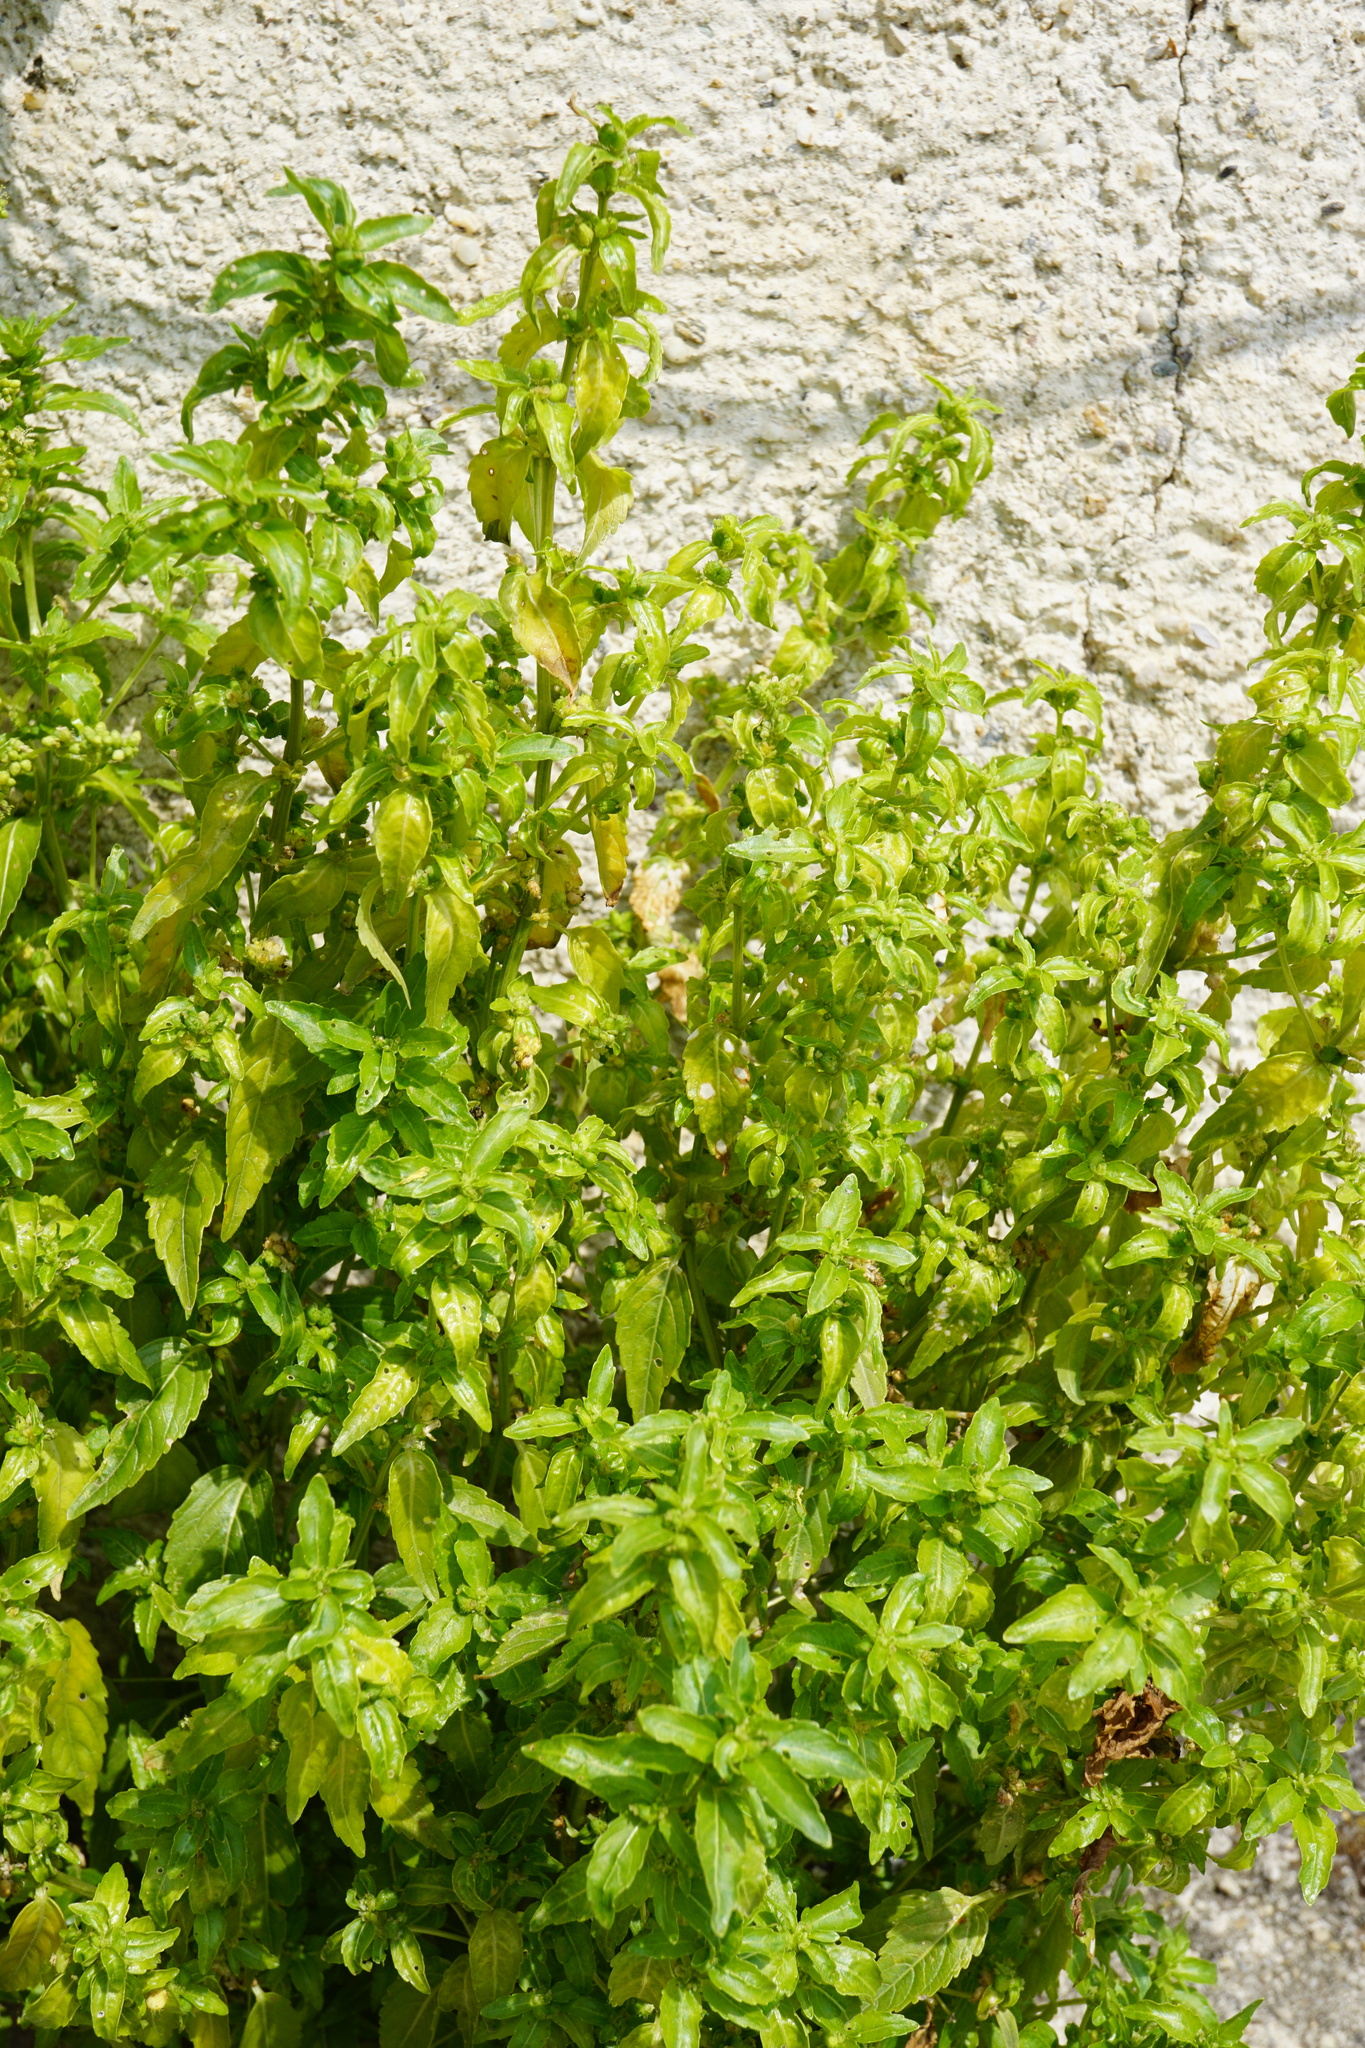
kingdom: Plantae
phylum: Tracheophyta
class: Magnoliopsida
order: Malpighiales
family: Euphorbiaceae
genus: Mercurialis
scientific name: Mercurialis annua
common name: Annual mercury
